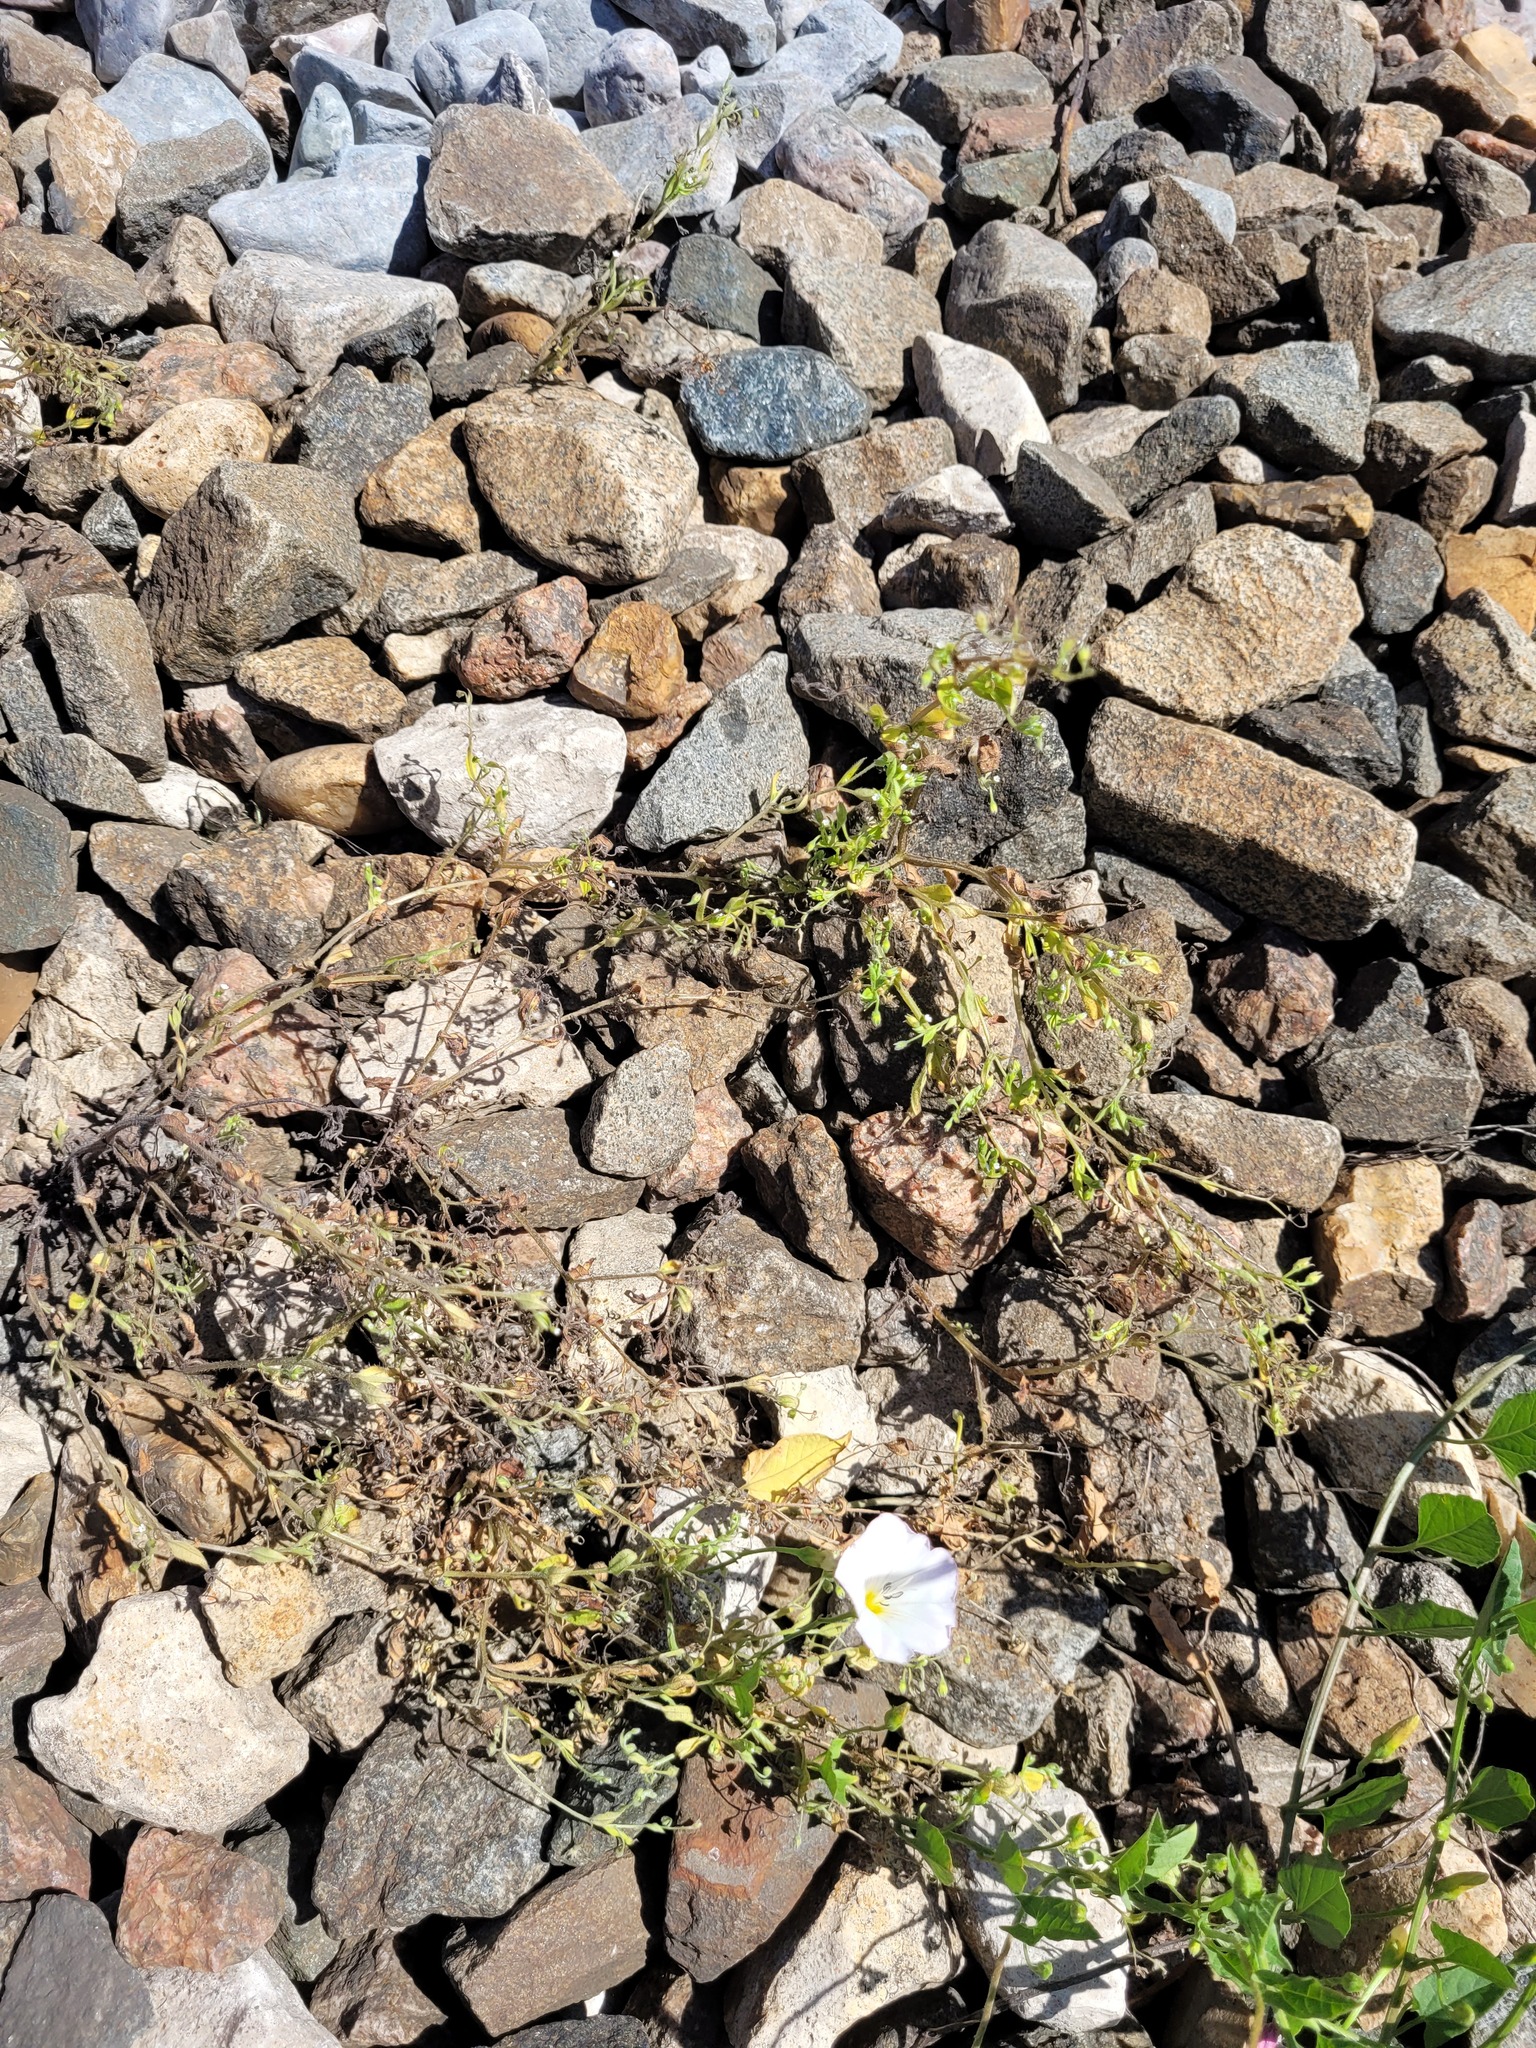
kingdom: Plantae
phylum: Tracheophyta
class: Magnoliopsida
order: Boraginales
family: Boraginaceae
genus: Myosotis
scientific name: Myosotis sparsiflora
